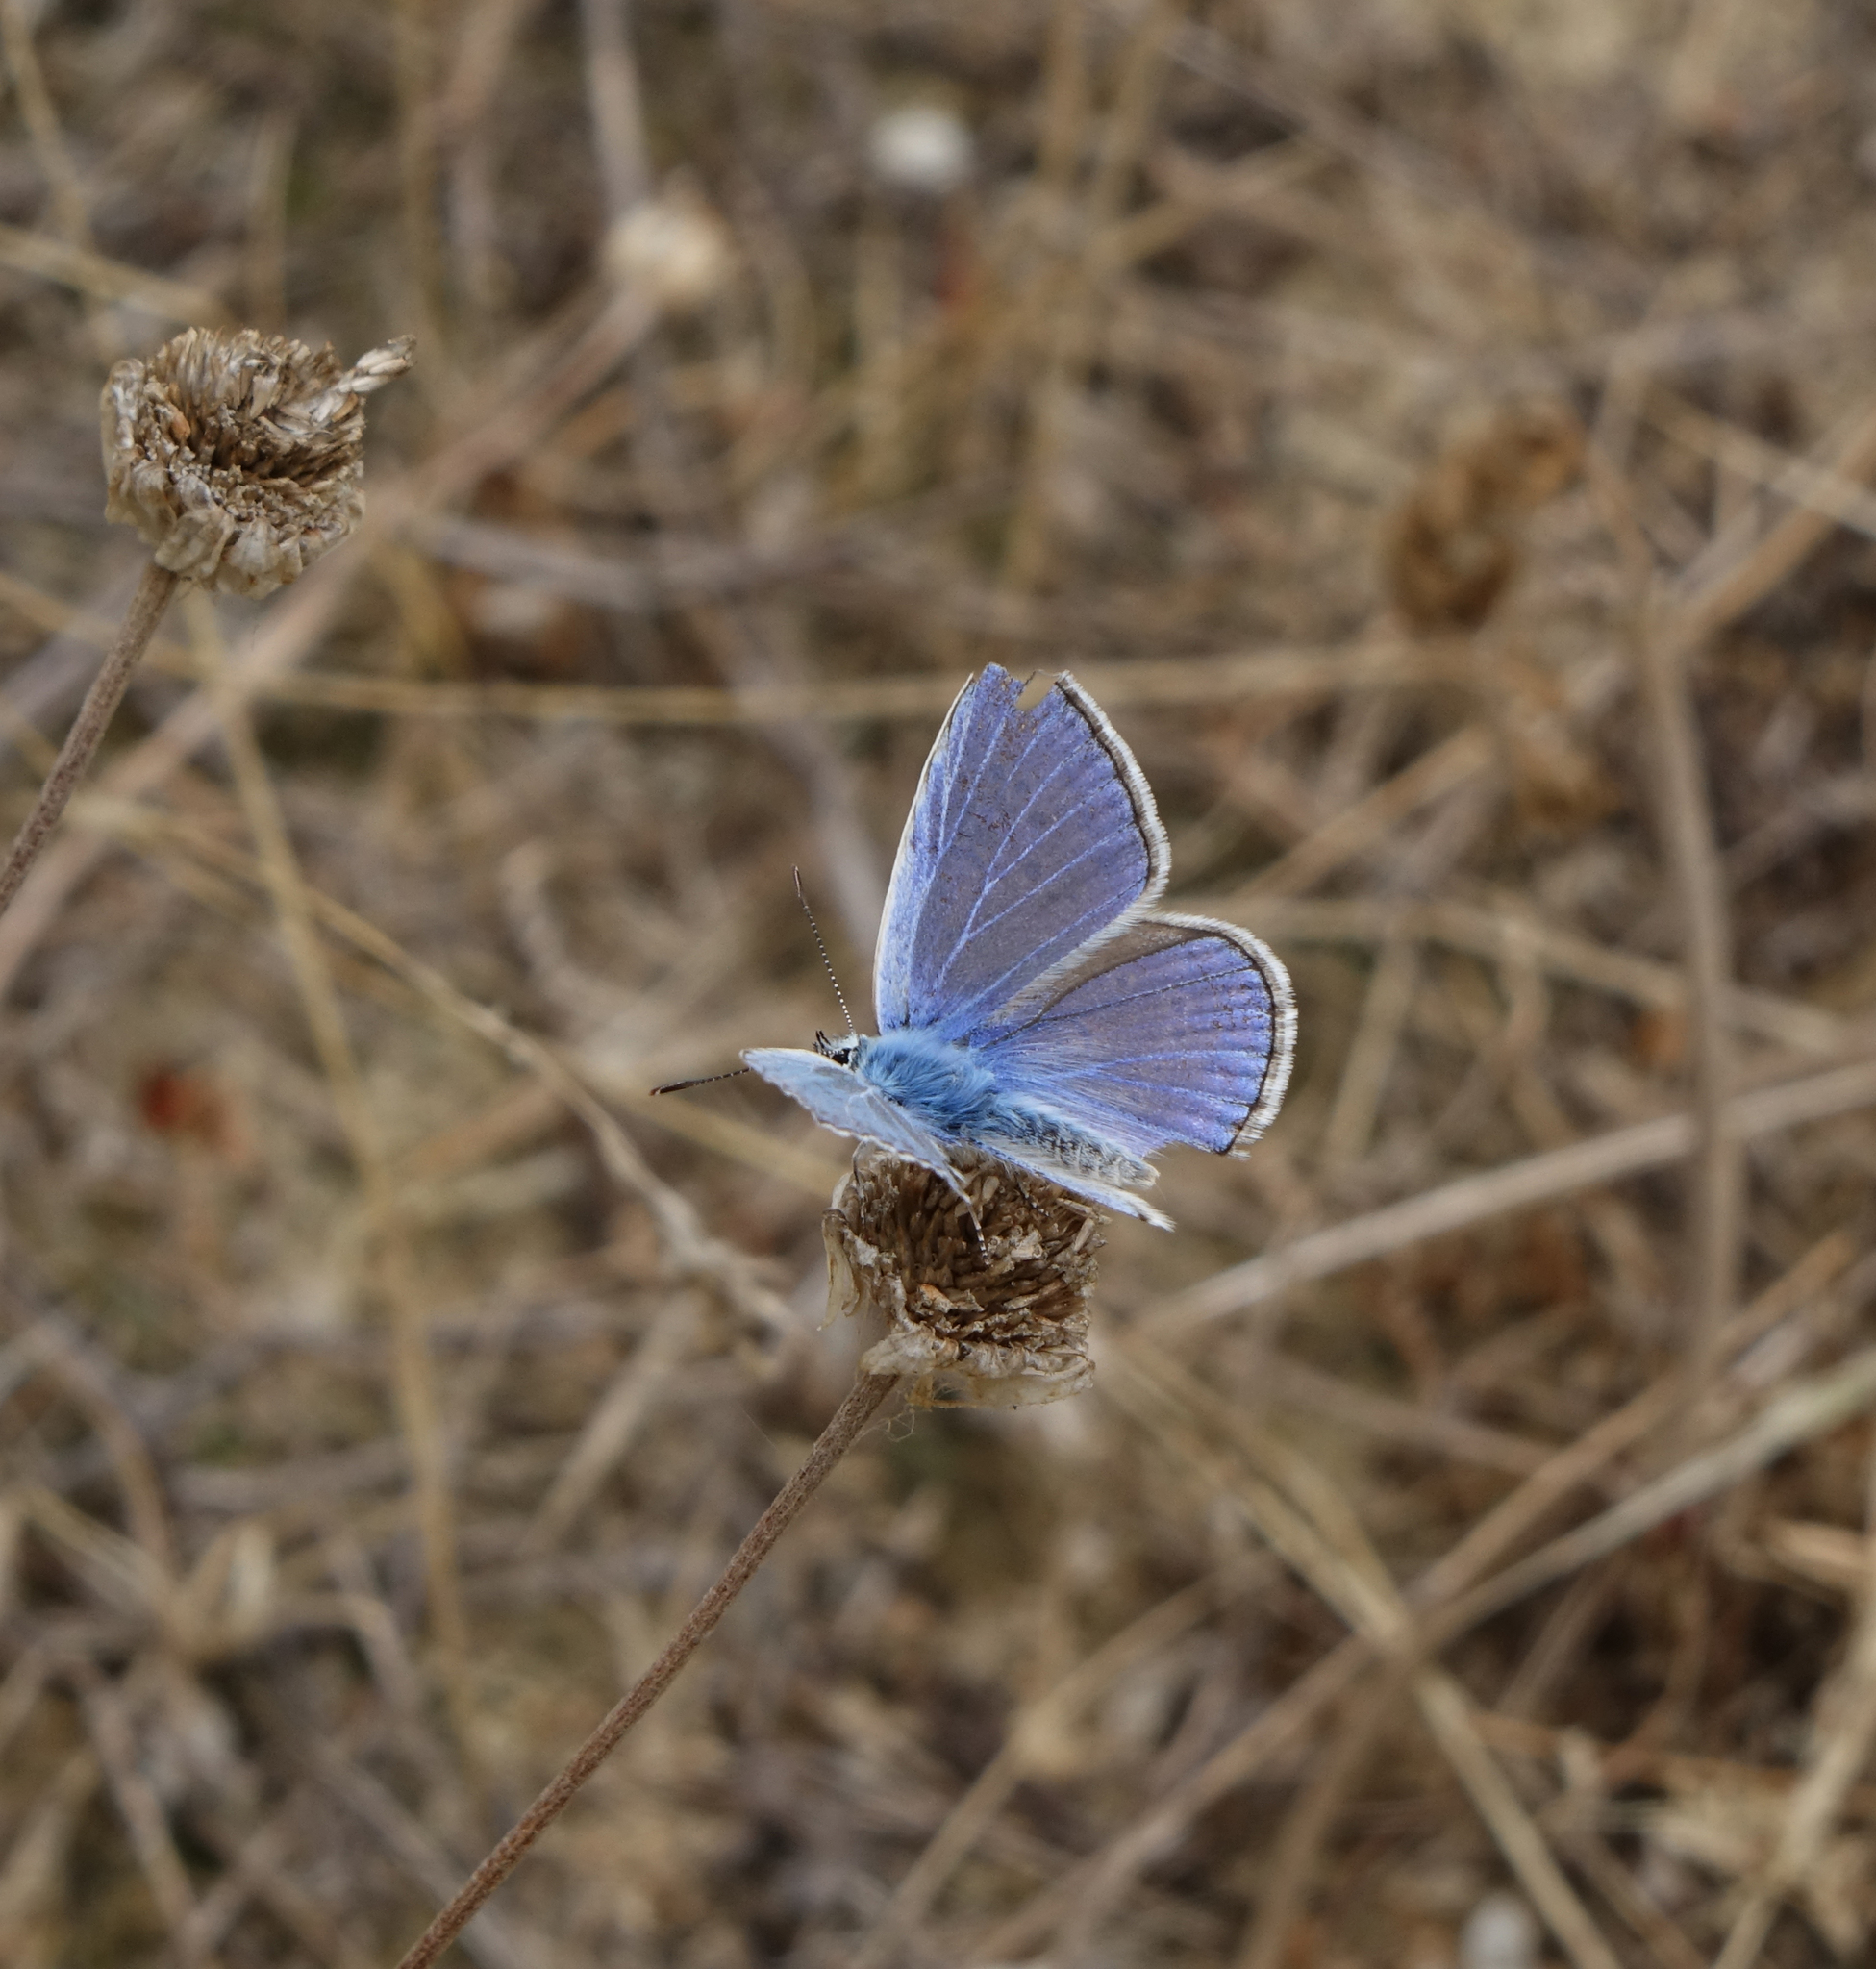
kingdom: Animalia
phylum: Arthropoda
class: Insecta
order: Lepidoptera
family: Lycaenidae
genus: Polyommatus
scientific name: Polyommatus icarus
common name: Common blue
